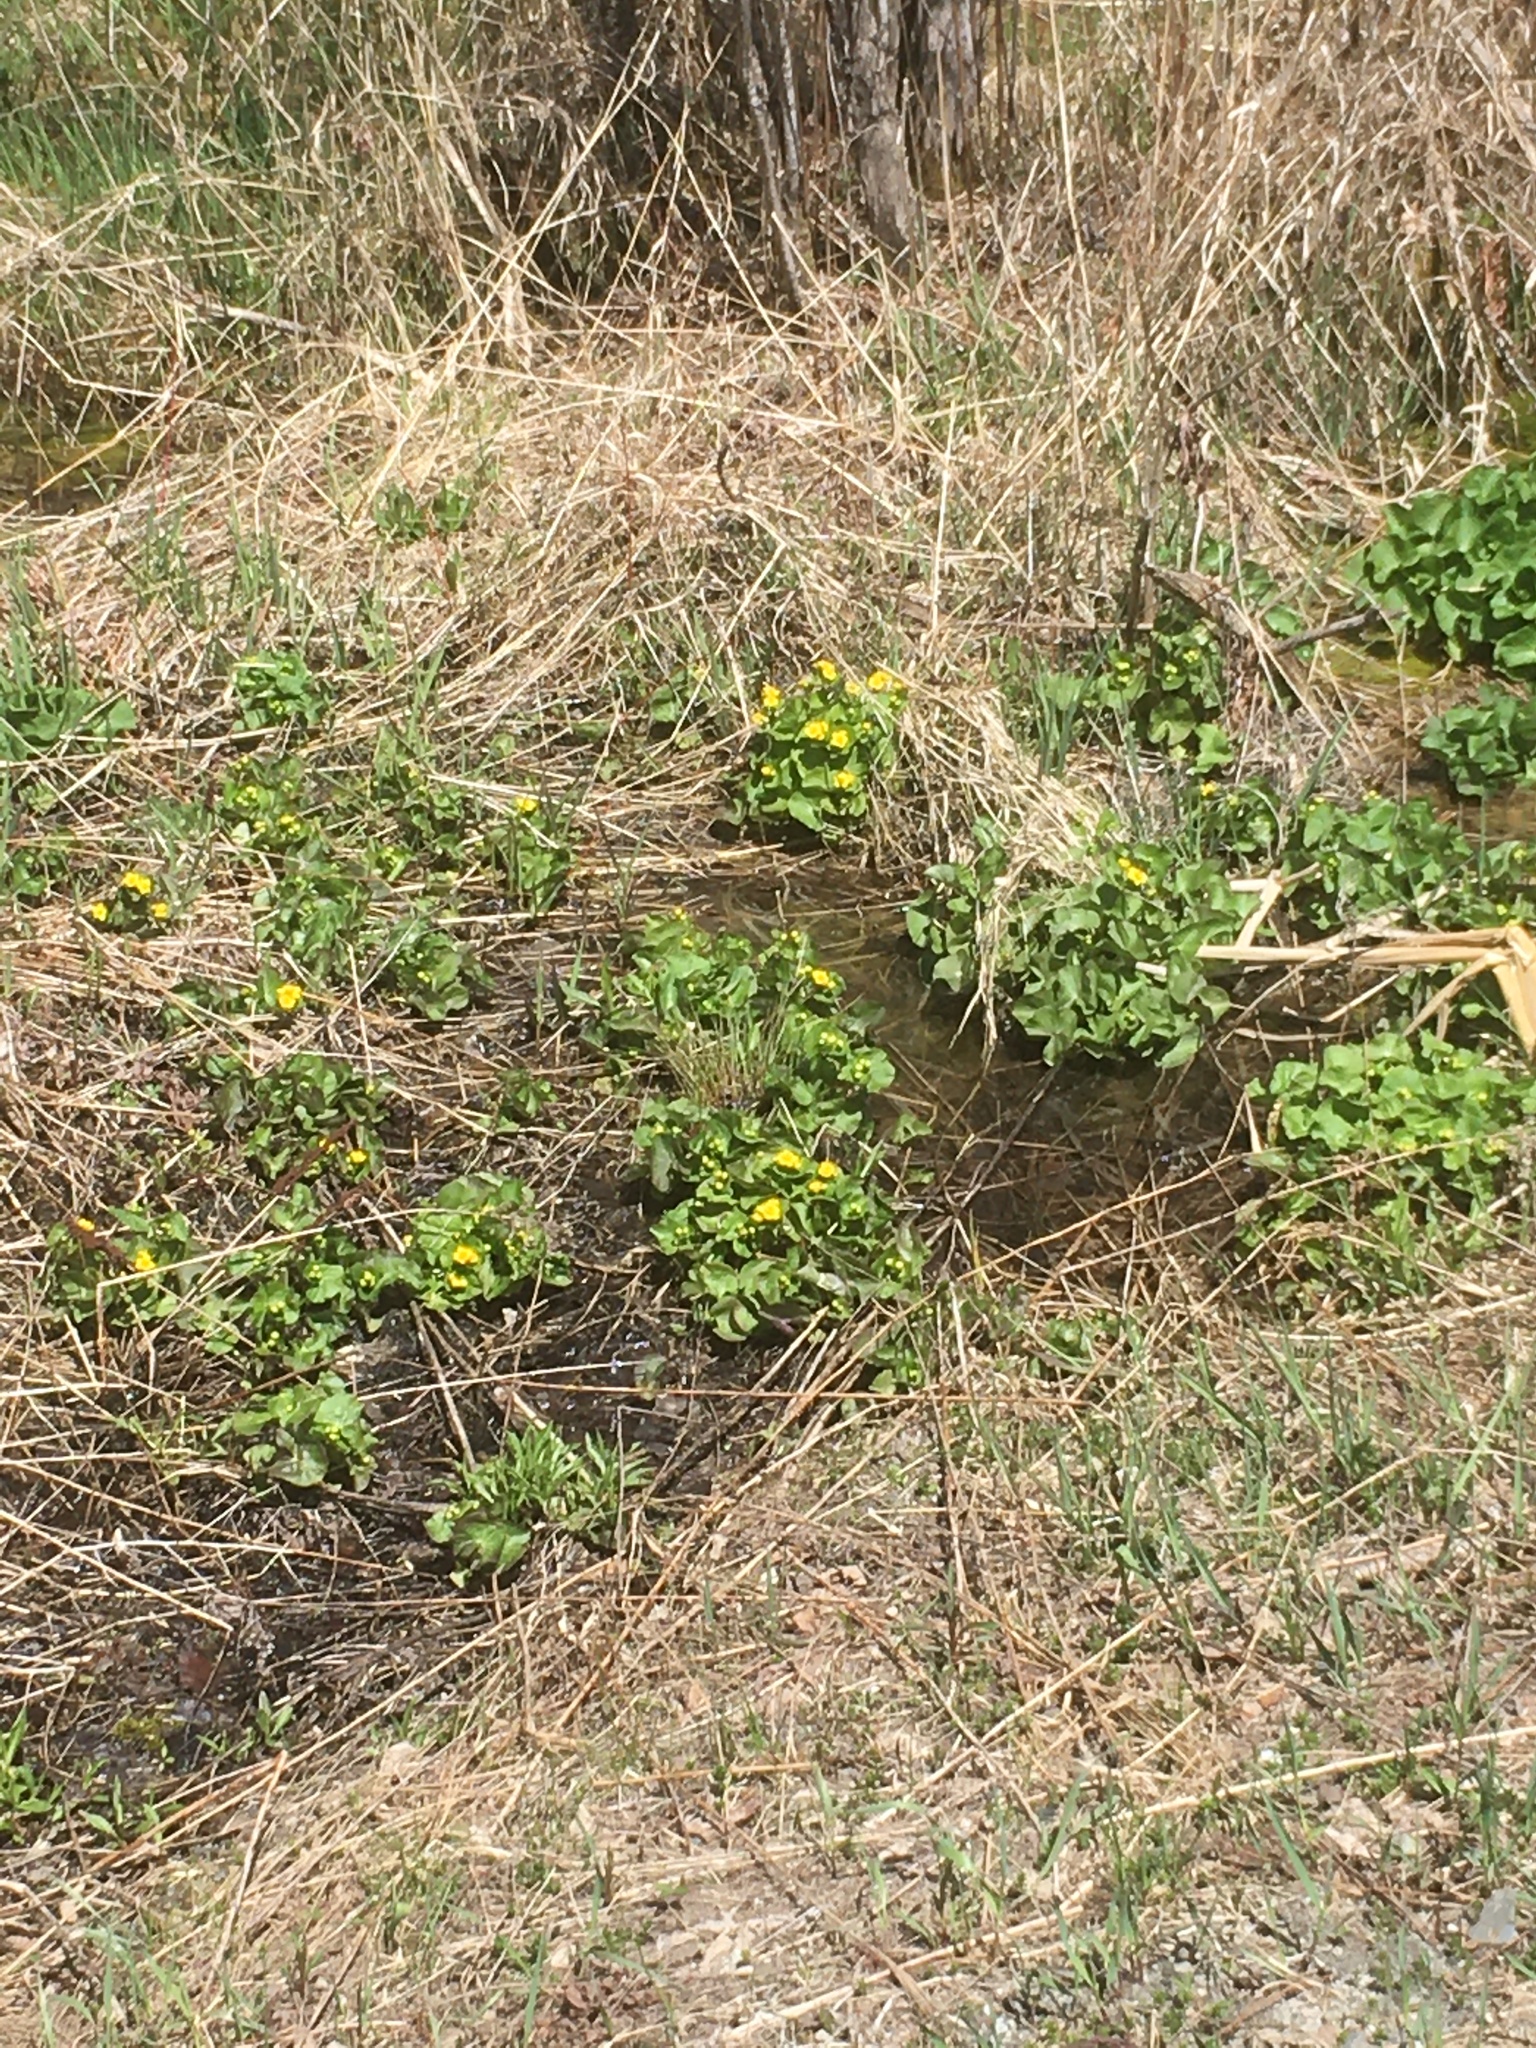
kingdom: Plantae
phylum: Tracheophyta
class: Magnoliopsida
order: Ranunculales
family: Ranunculaceae
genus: Caltha
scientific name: Caltha palustris
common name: Marsh marigold
